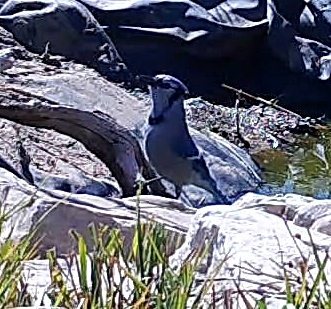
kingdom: Animalia
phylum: Chordata
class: Aves
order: Passeriformes
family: Corvidae
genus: Cyanocitta
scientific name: Cyanocitta cristata
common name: Blue jay
